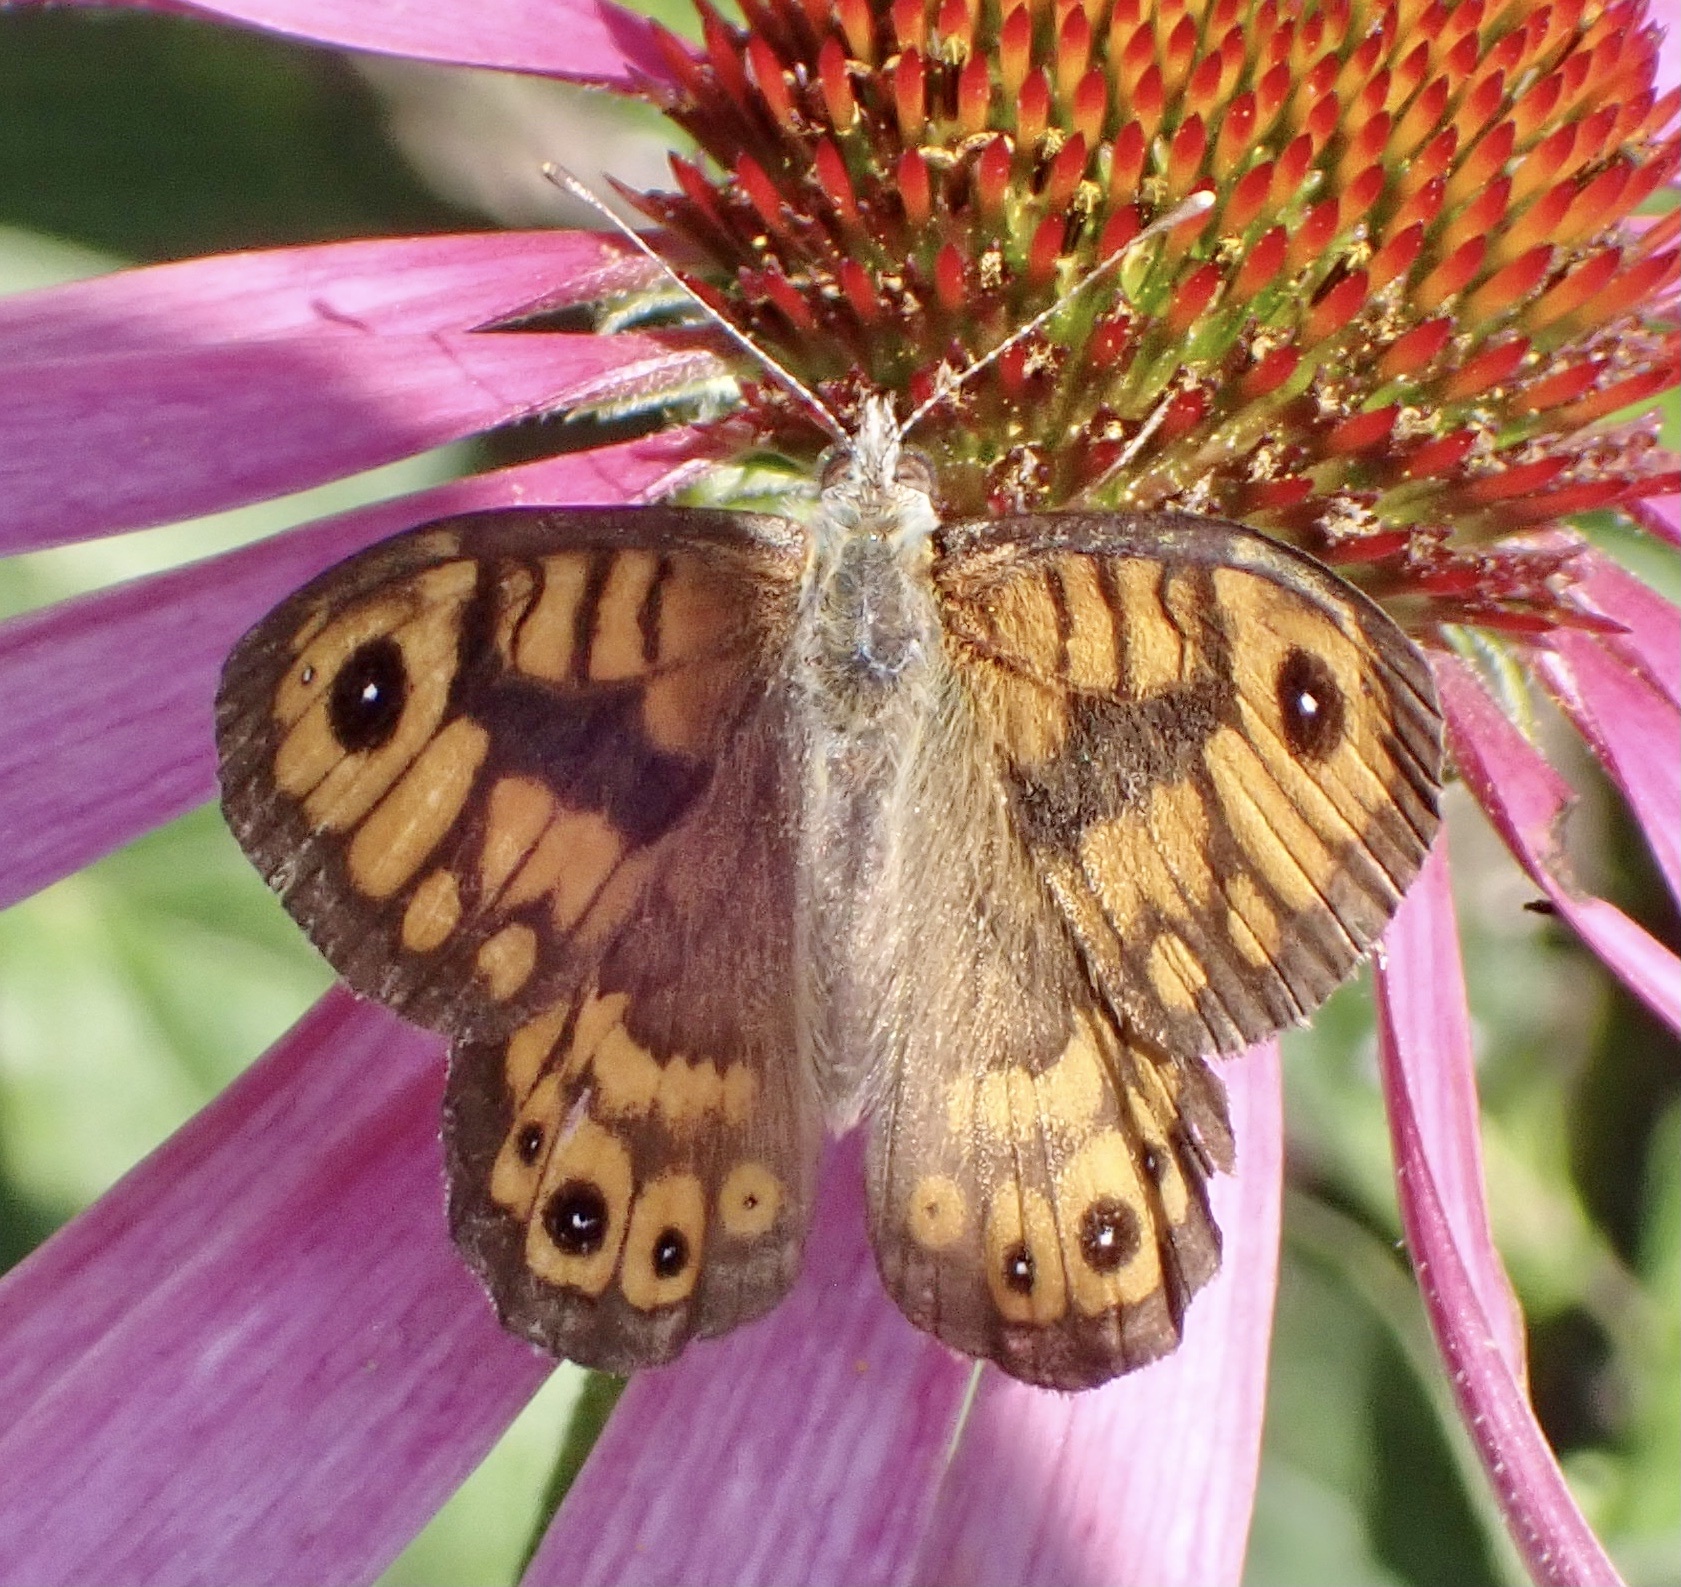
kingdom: Animalia
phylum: Arthropoda
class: Insecta
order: Lepidoptera
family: Nymphalidae
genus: Pararge
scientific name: Pararge Lasiommata megera
